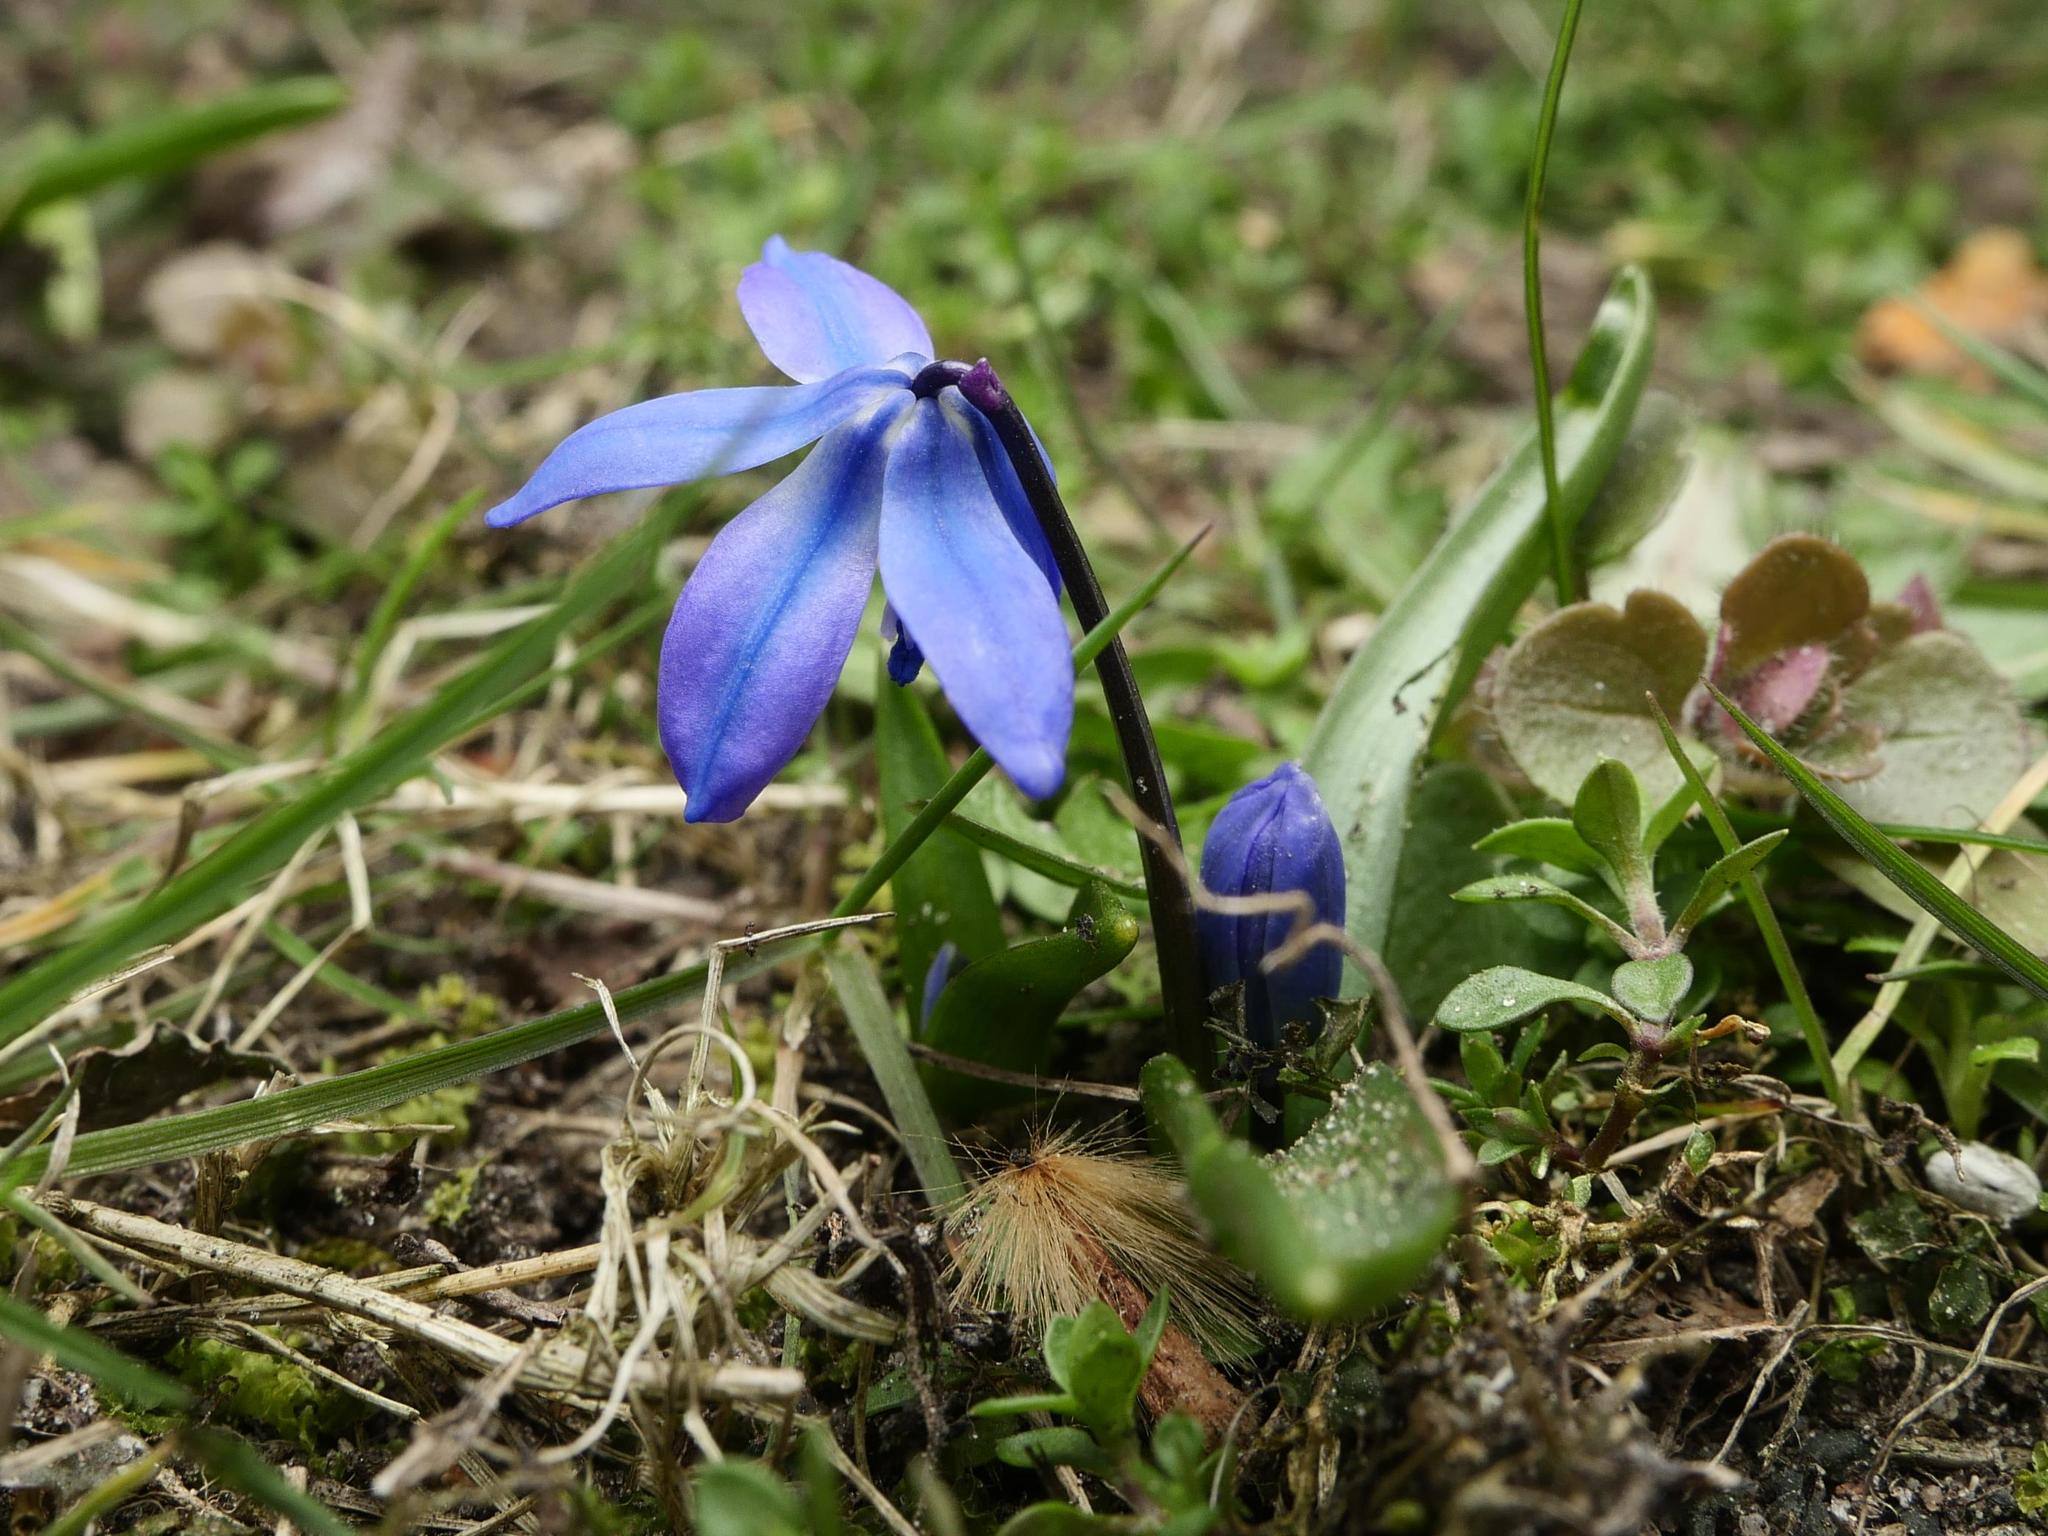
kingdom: Plantae
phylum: Tracheophyta
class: Liliopsida
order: Asparagales
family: Asparagaceae
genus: Scilla
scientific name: Scilla siberica
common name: Siberian squill
